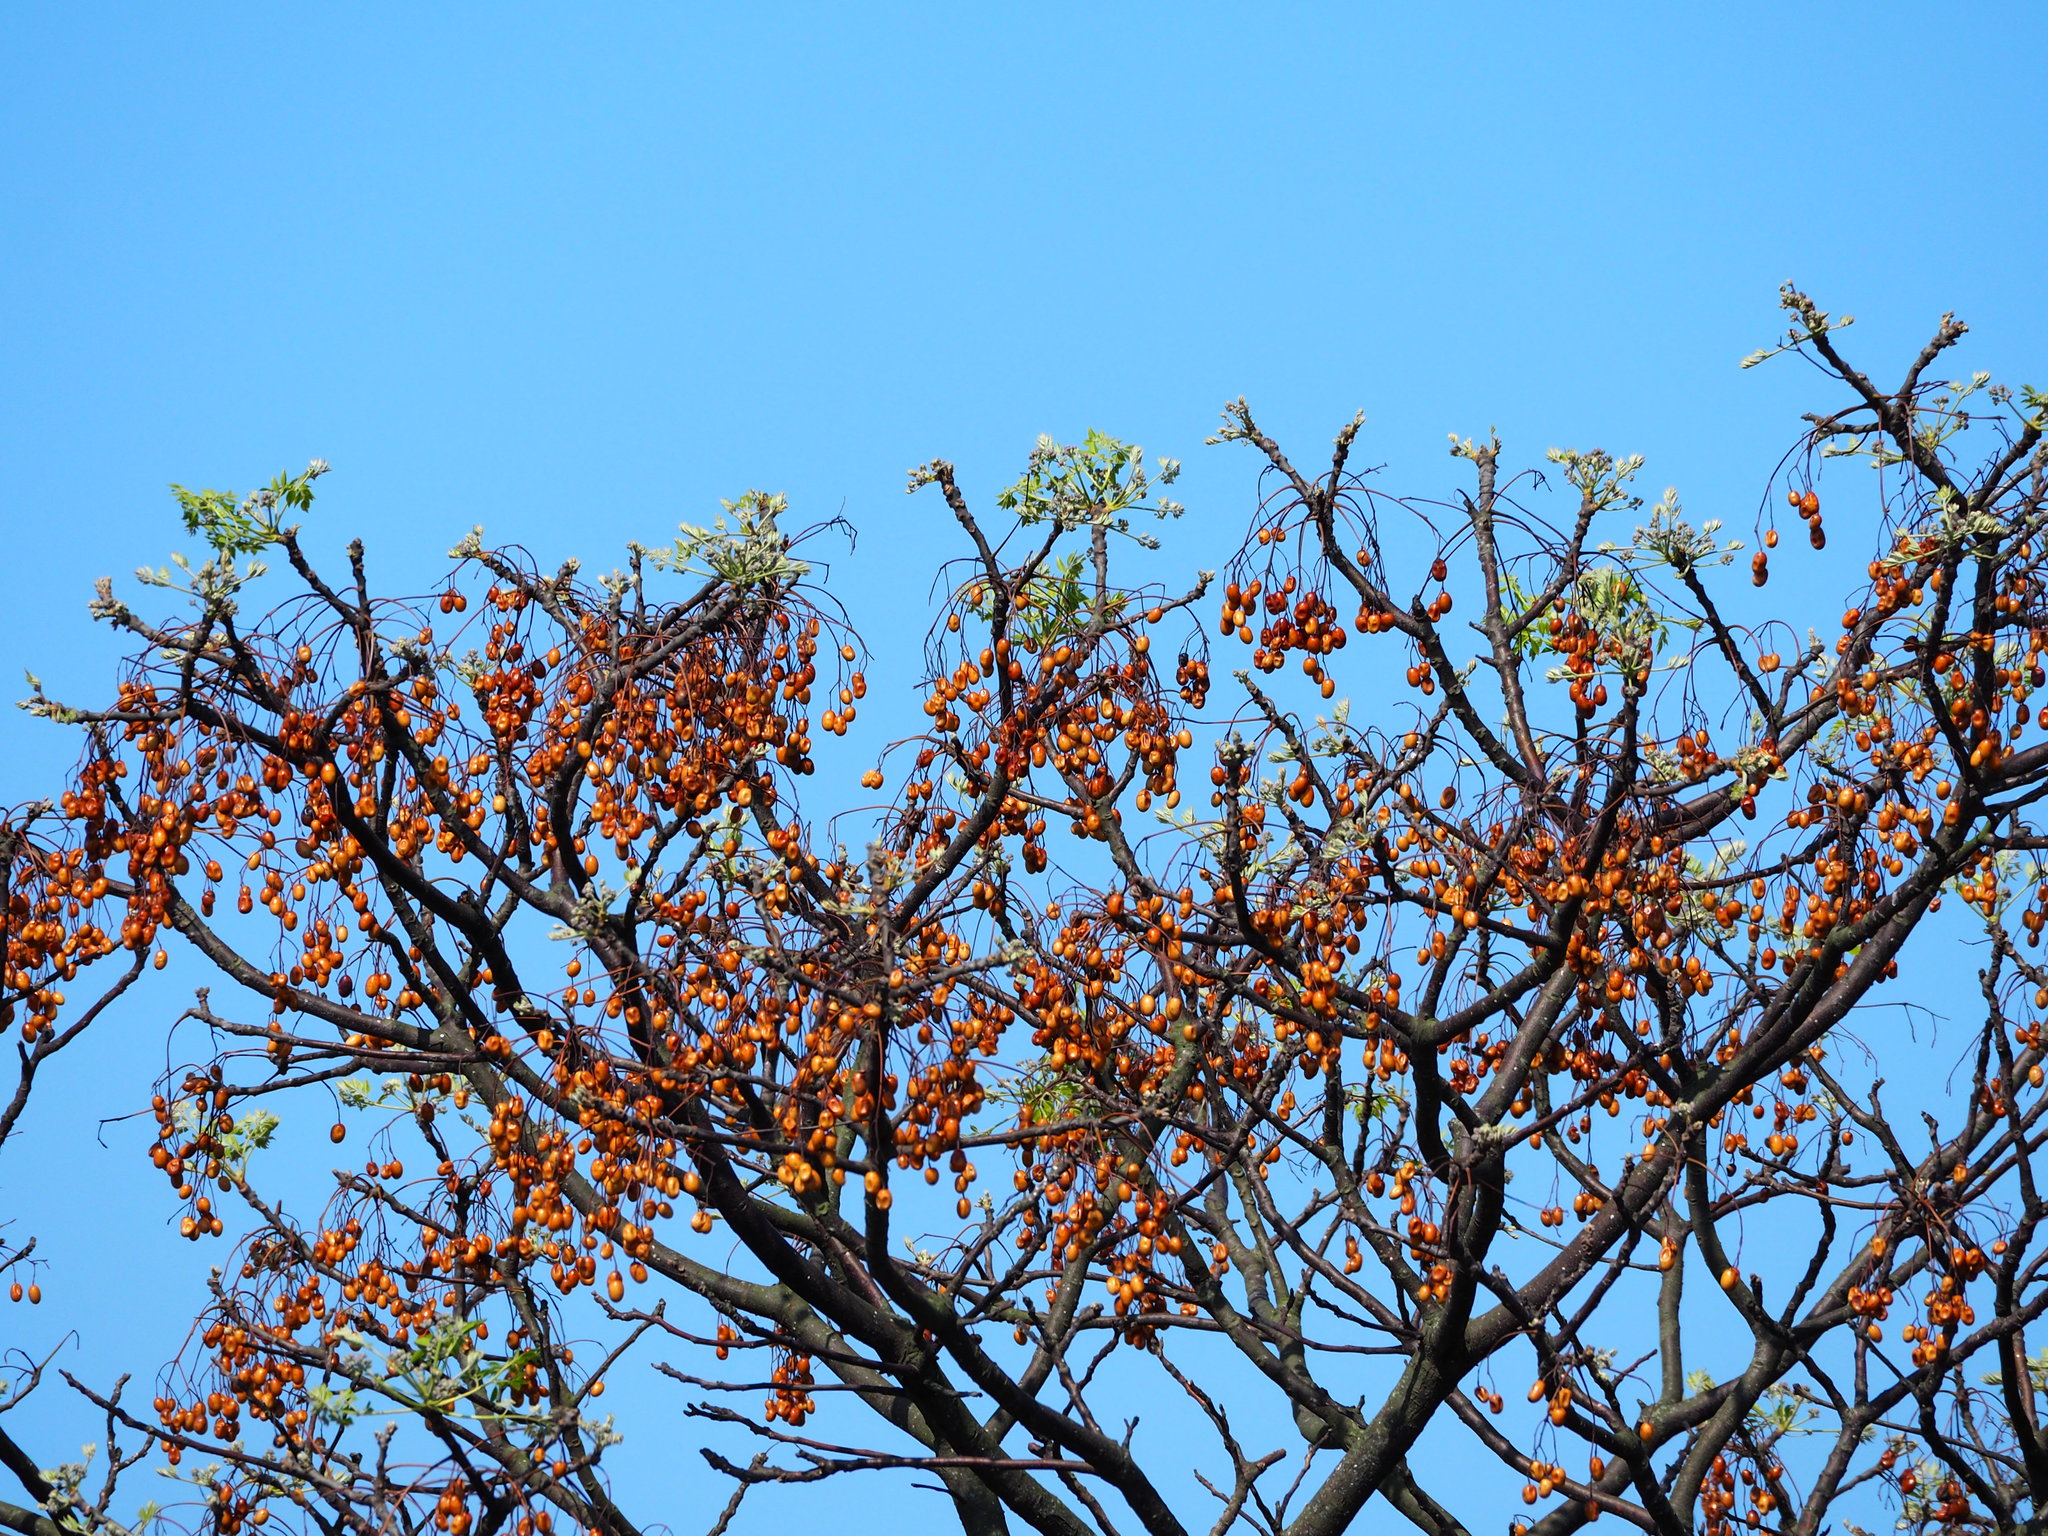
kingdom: Plantae
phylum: Tracheophyta
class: Magnoliopsida
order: Sapindales
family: Meliaceae
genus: Melia
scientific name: Melia azedarach
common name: Chinaberrytree
